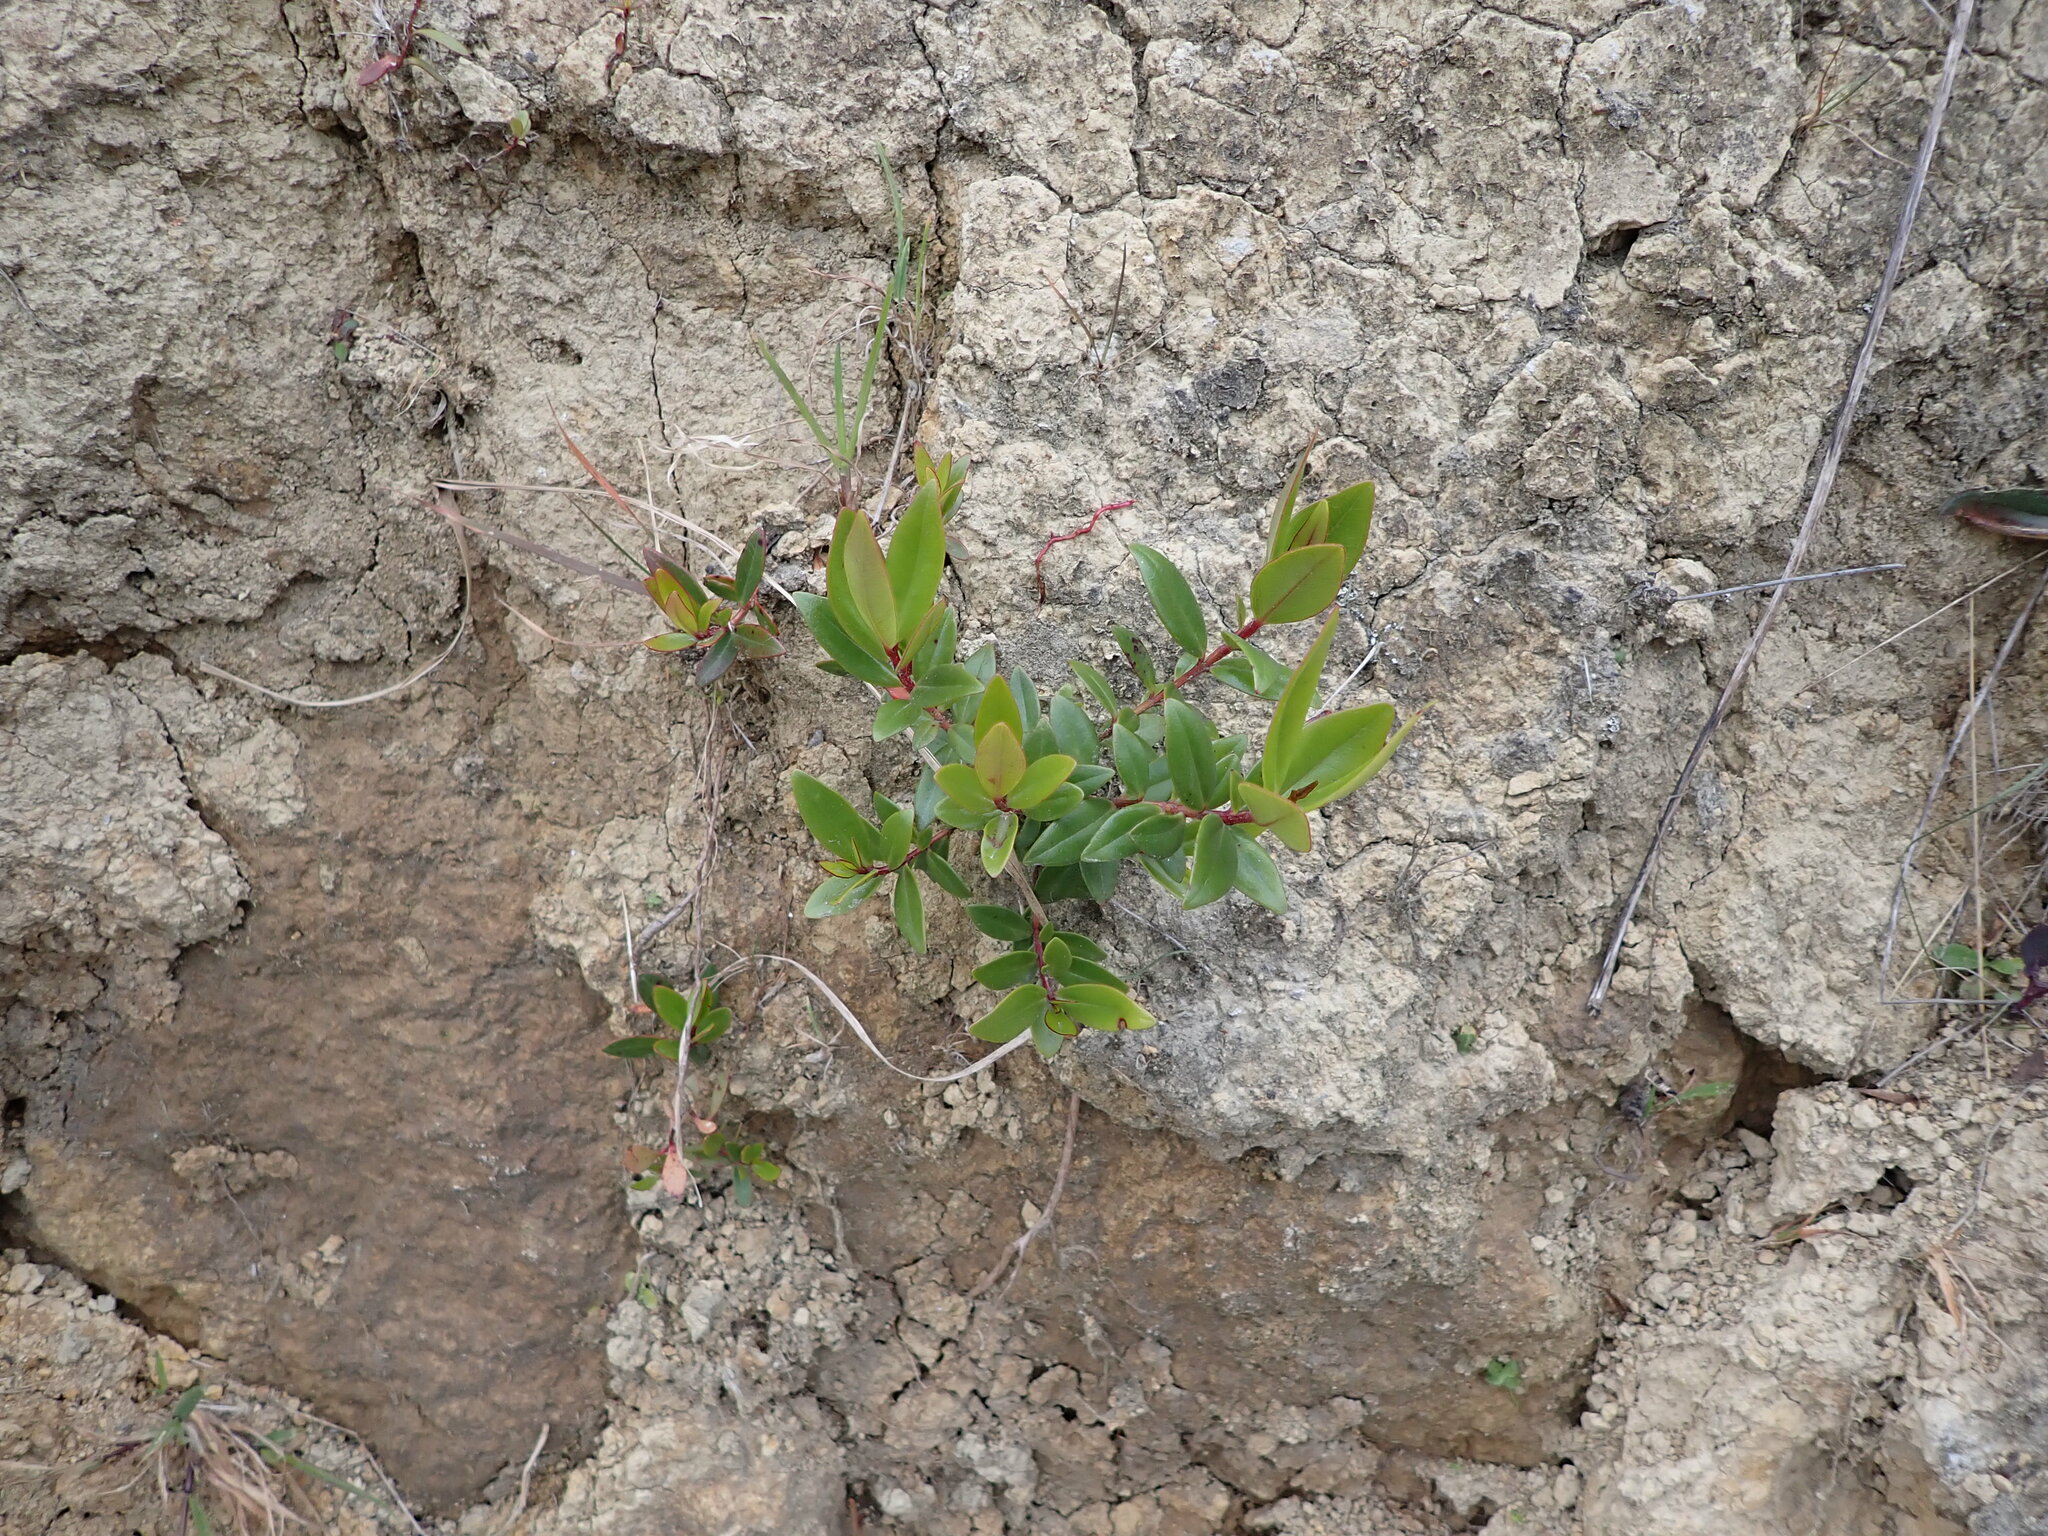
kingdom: Plantae
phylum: Tracheophyta
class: Magnoliopsida
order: Myrtales
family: Myrtaceae
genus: Metrosideros
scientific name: Metrosideros excelsa
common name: New zealand christmastree
